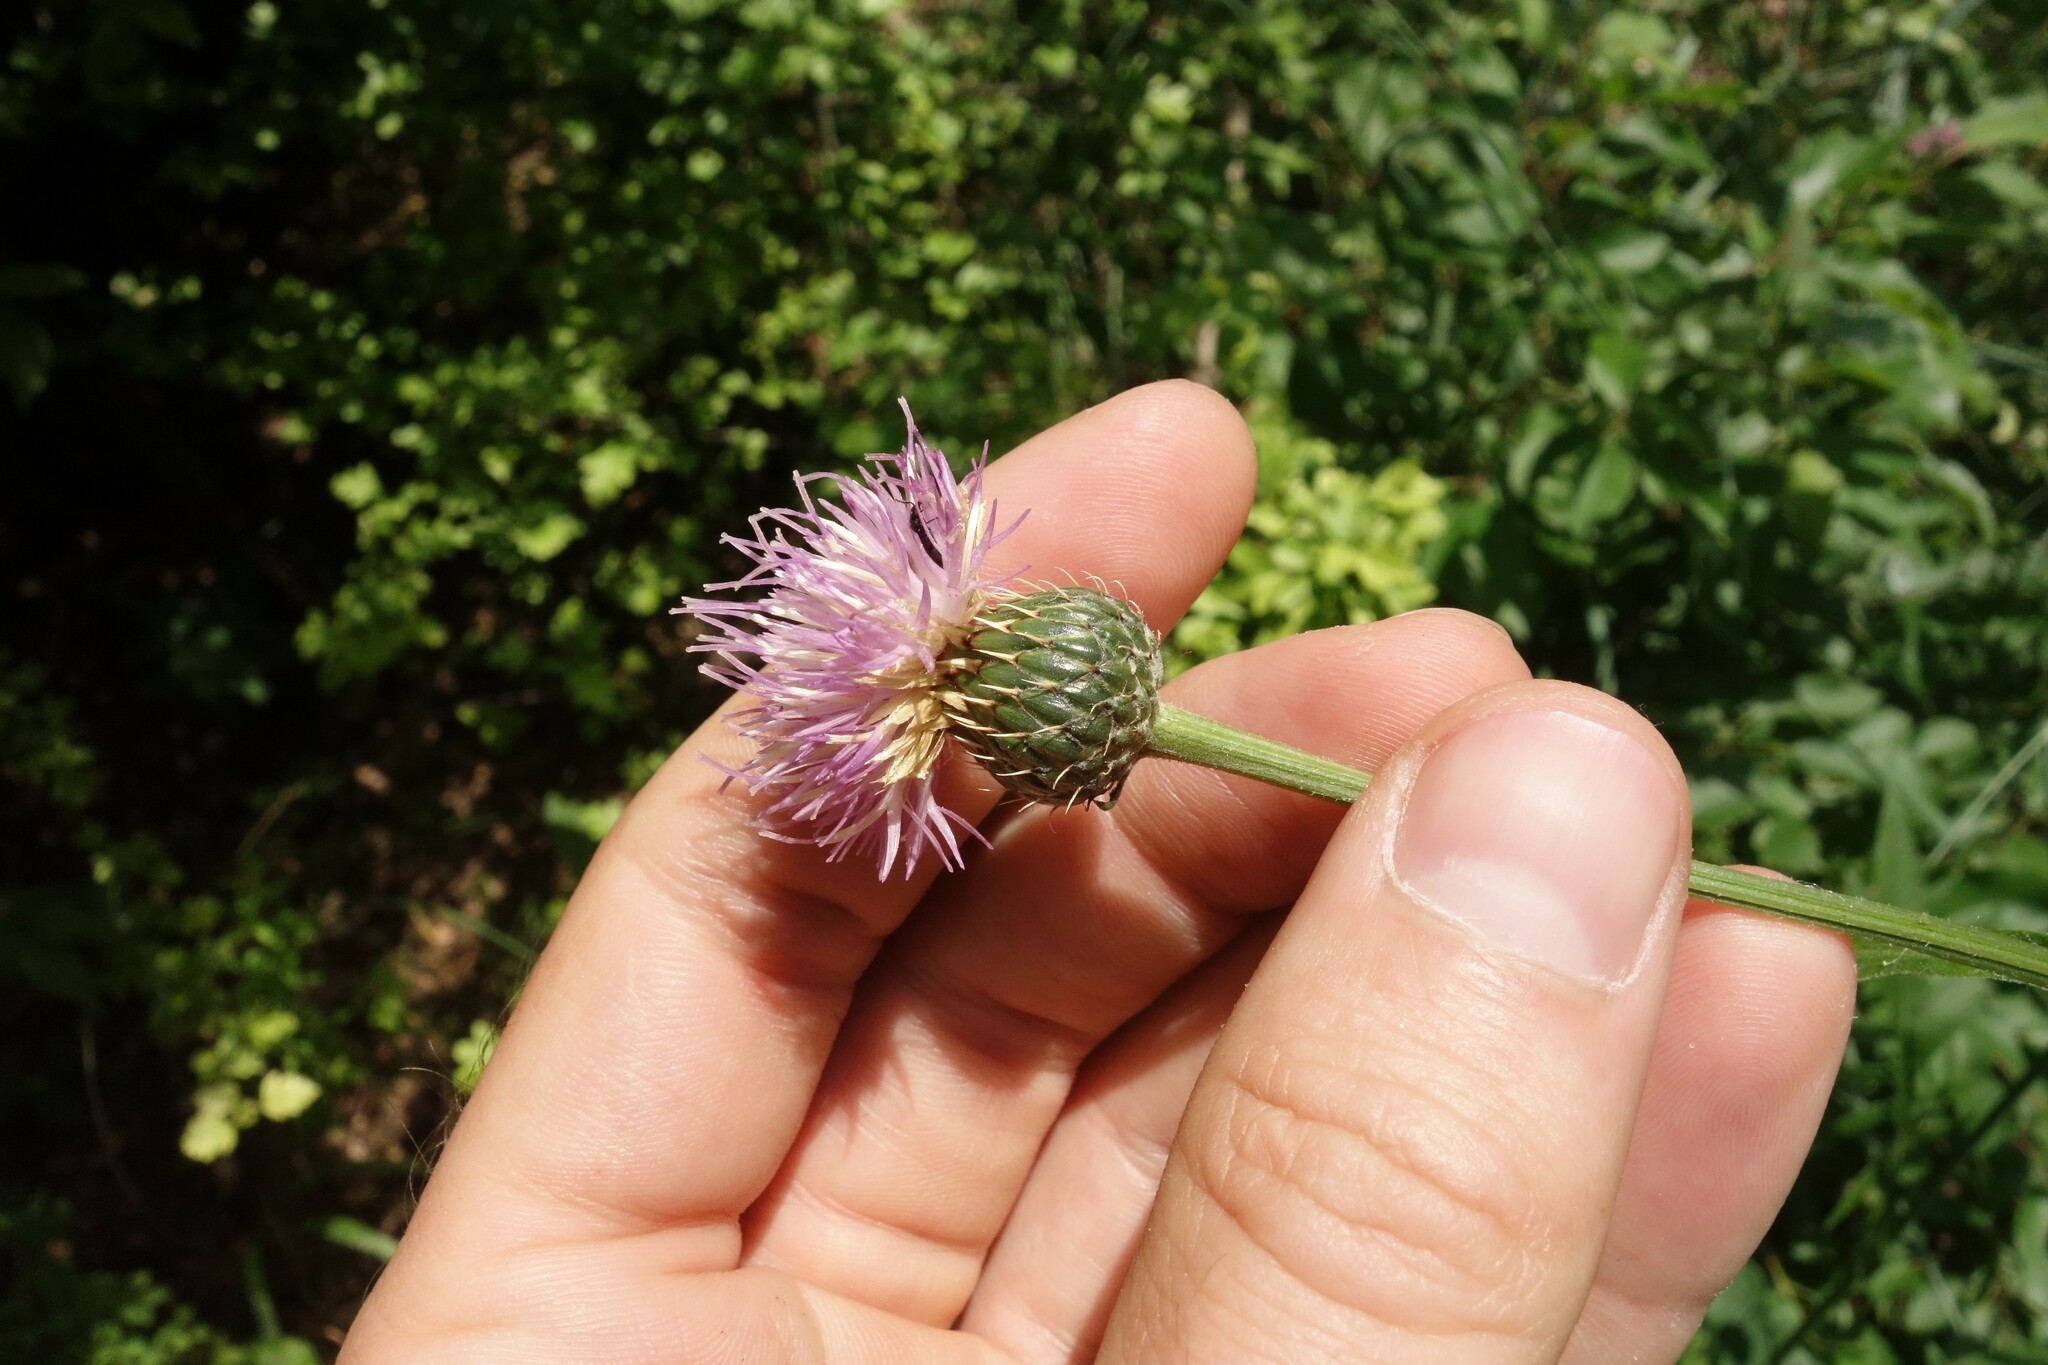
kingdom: Plantae
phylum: Tracheophyta
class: Magnoliopsida
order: Asterales
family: Asteraceae
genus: Klasea
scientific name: Klasea radiata
